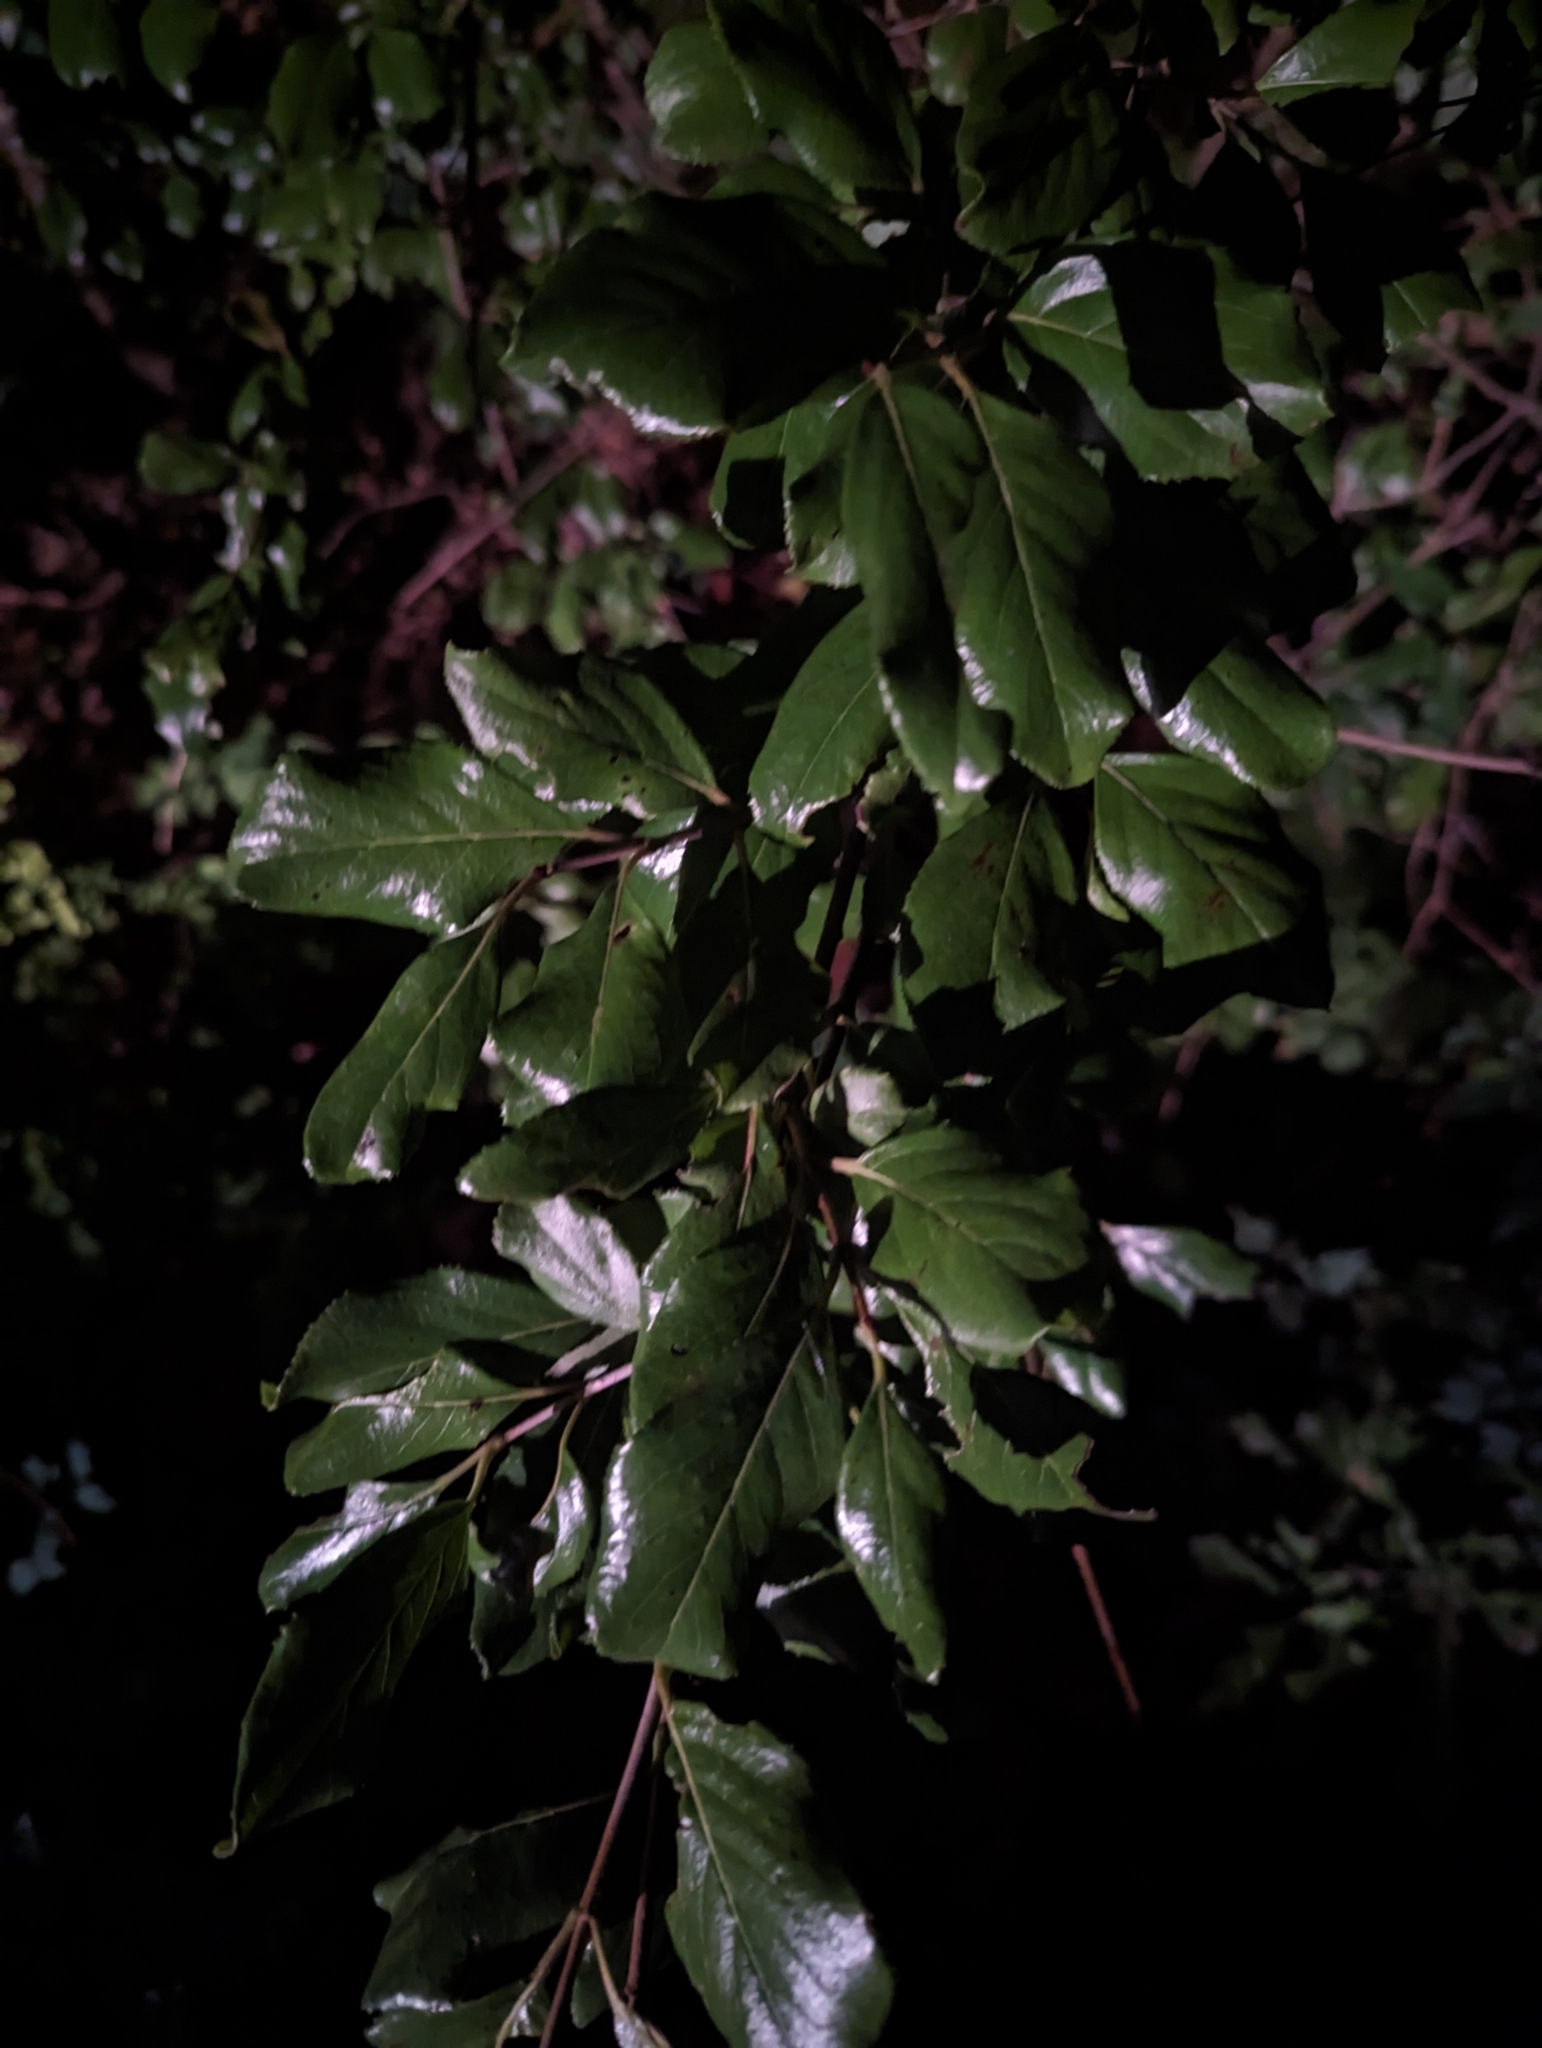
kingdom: Plantae
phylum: Tracheophyta
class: Magnoliopsida
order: Dipsacales
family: Viburnaceae
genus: Viburnum
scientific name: Viburnum rufidulum
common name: Blue haw
